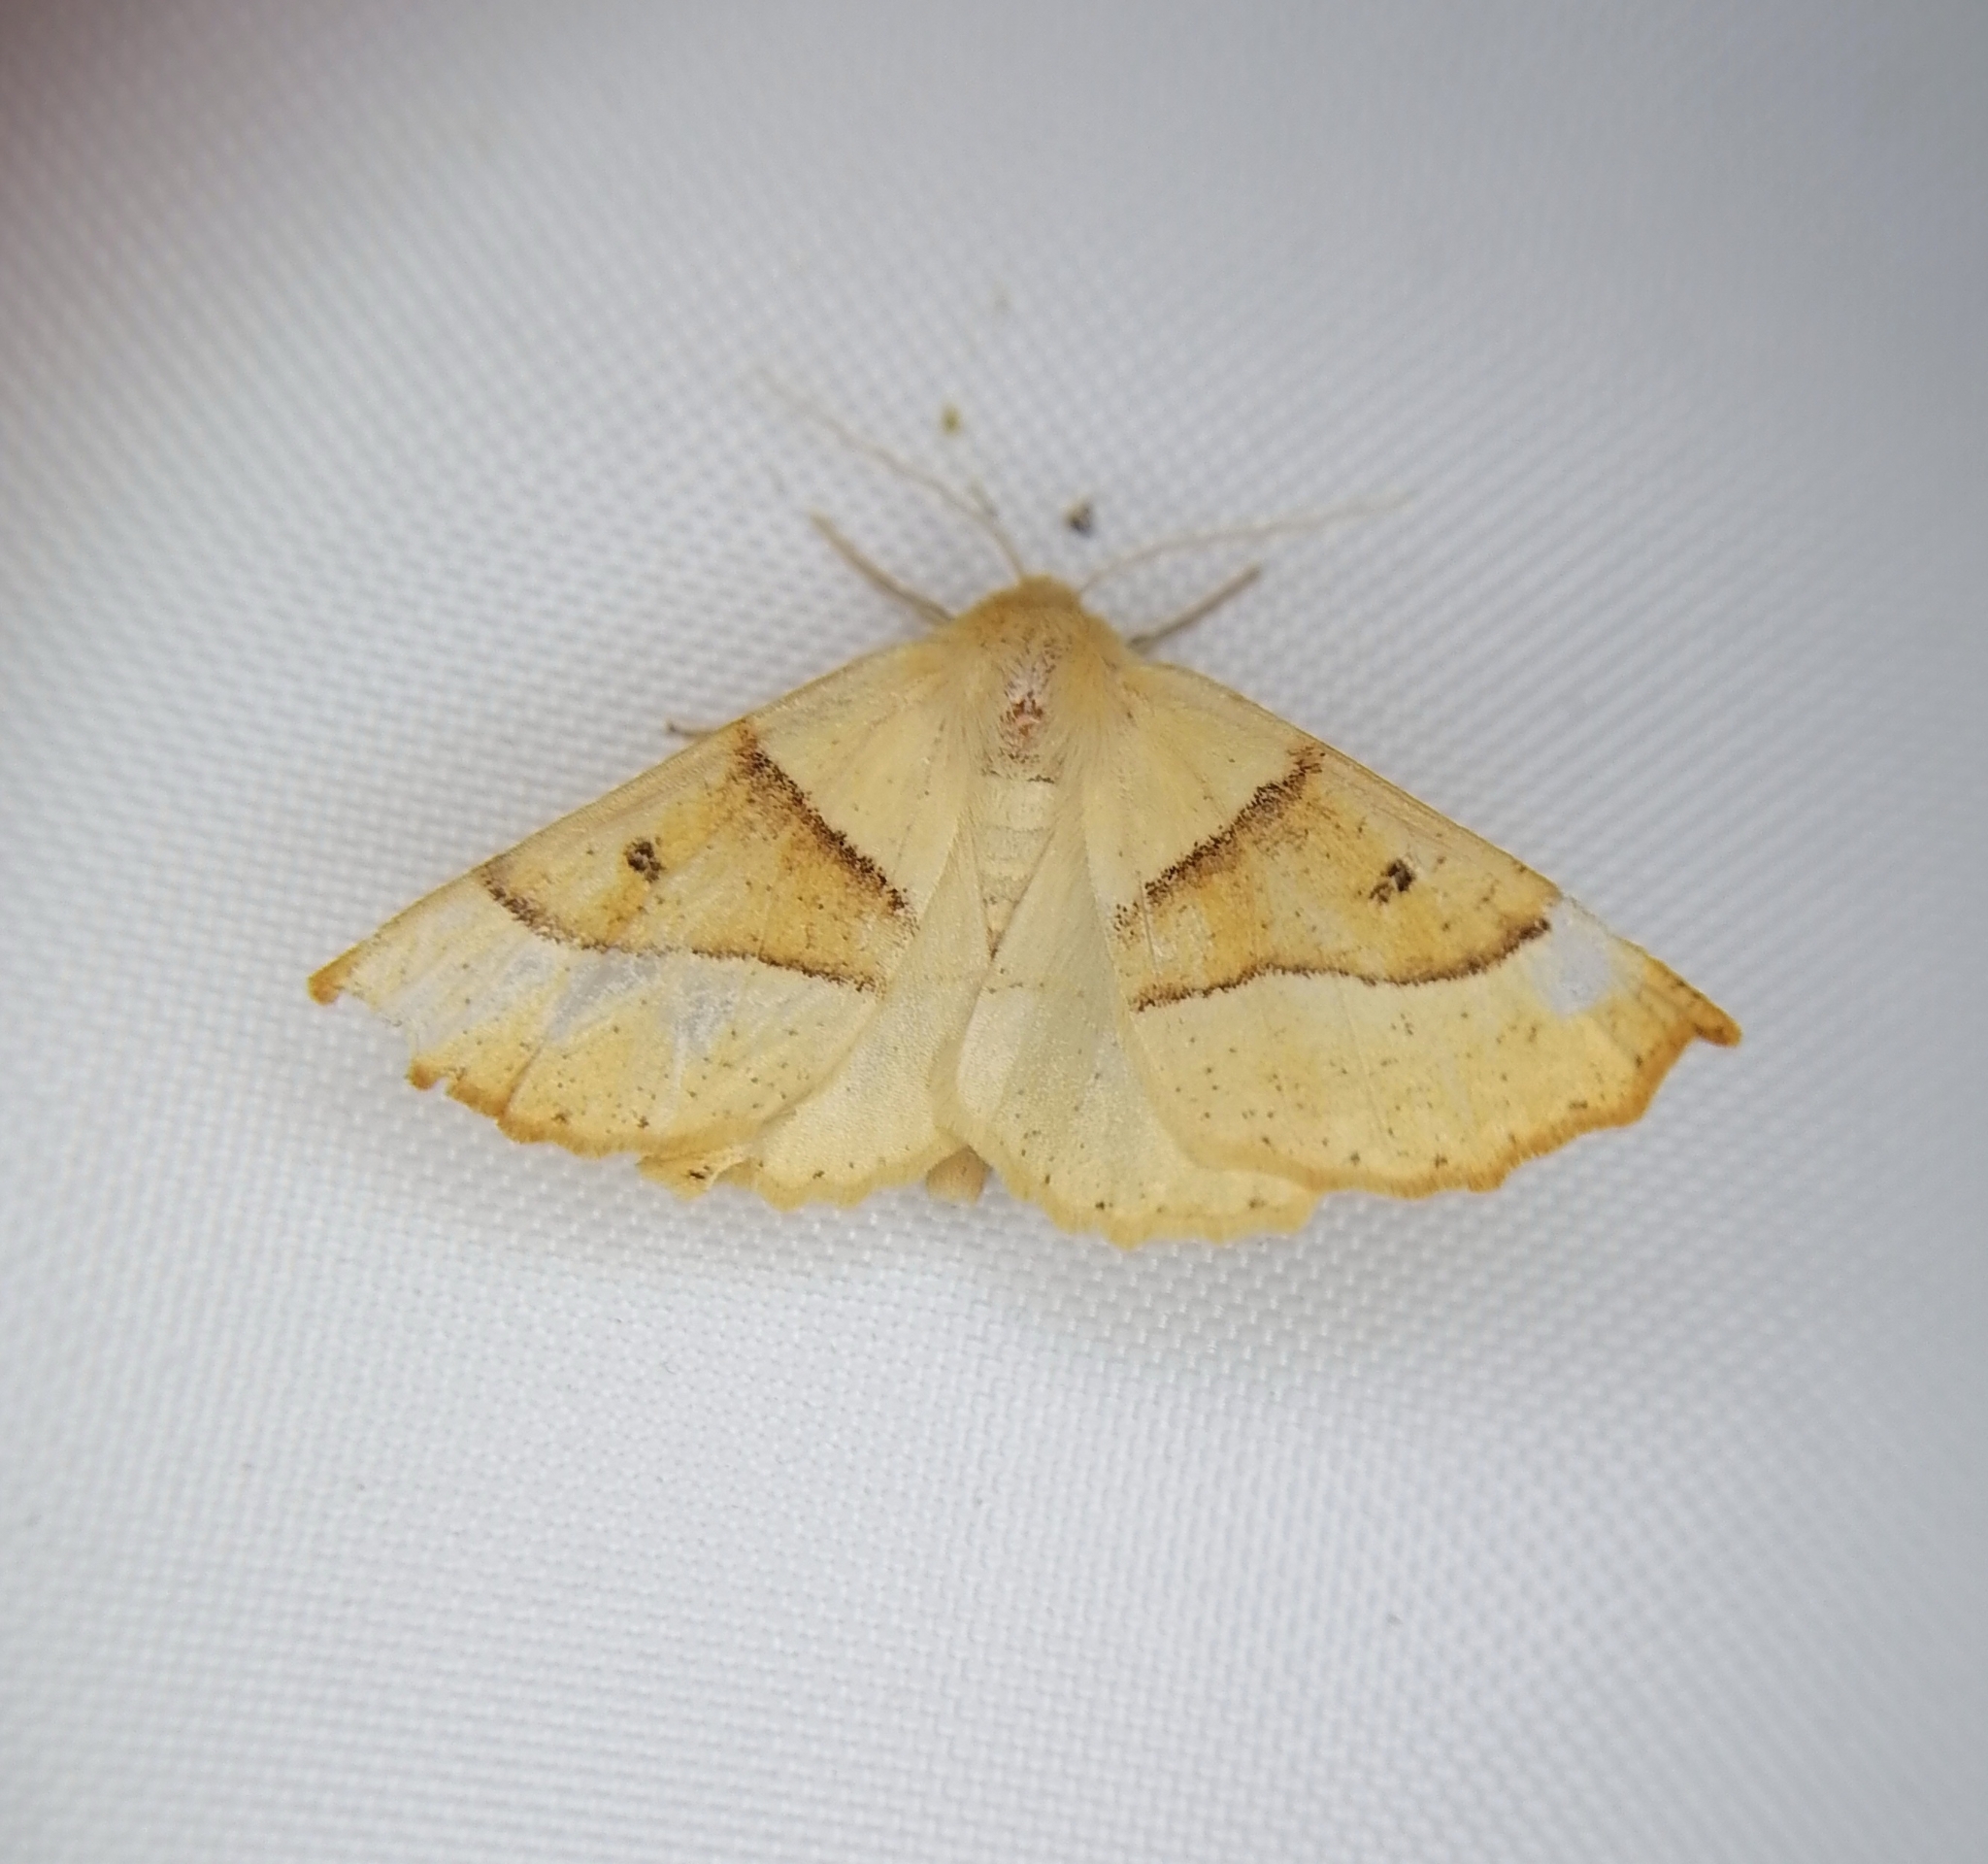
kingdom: Animalia
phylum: Arthropoda
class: Insecta
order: Lepidoptera
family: Geometridae
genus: Crocallis
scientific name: Crocallis elinguaria
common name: Scalloped oak
